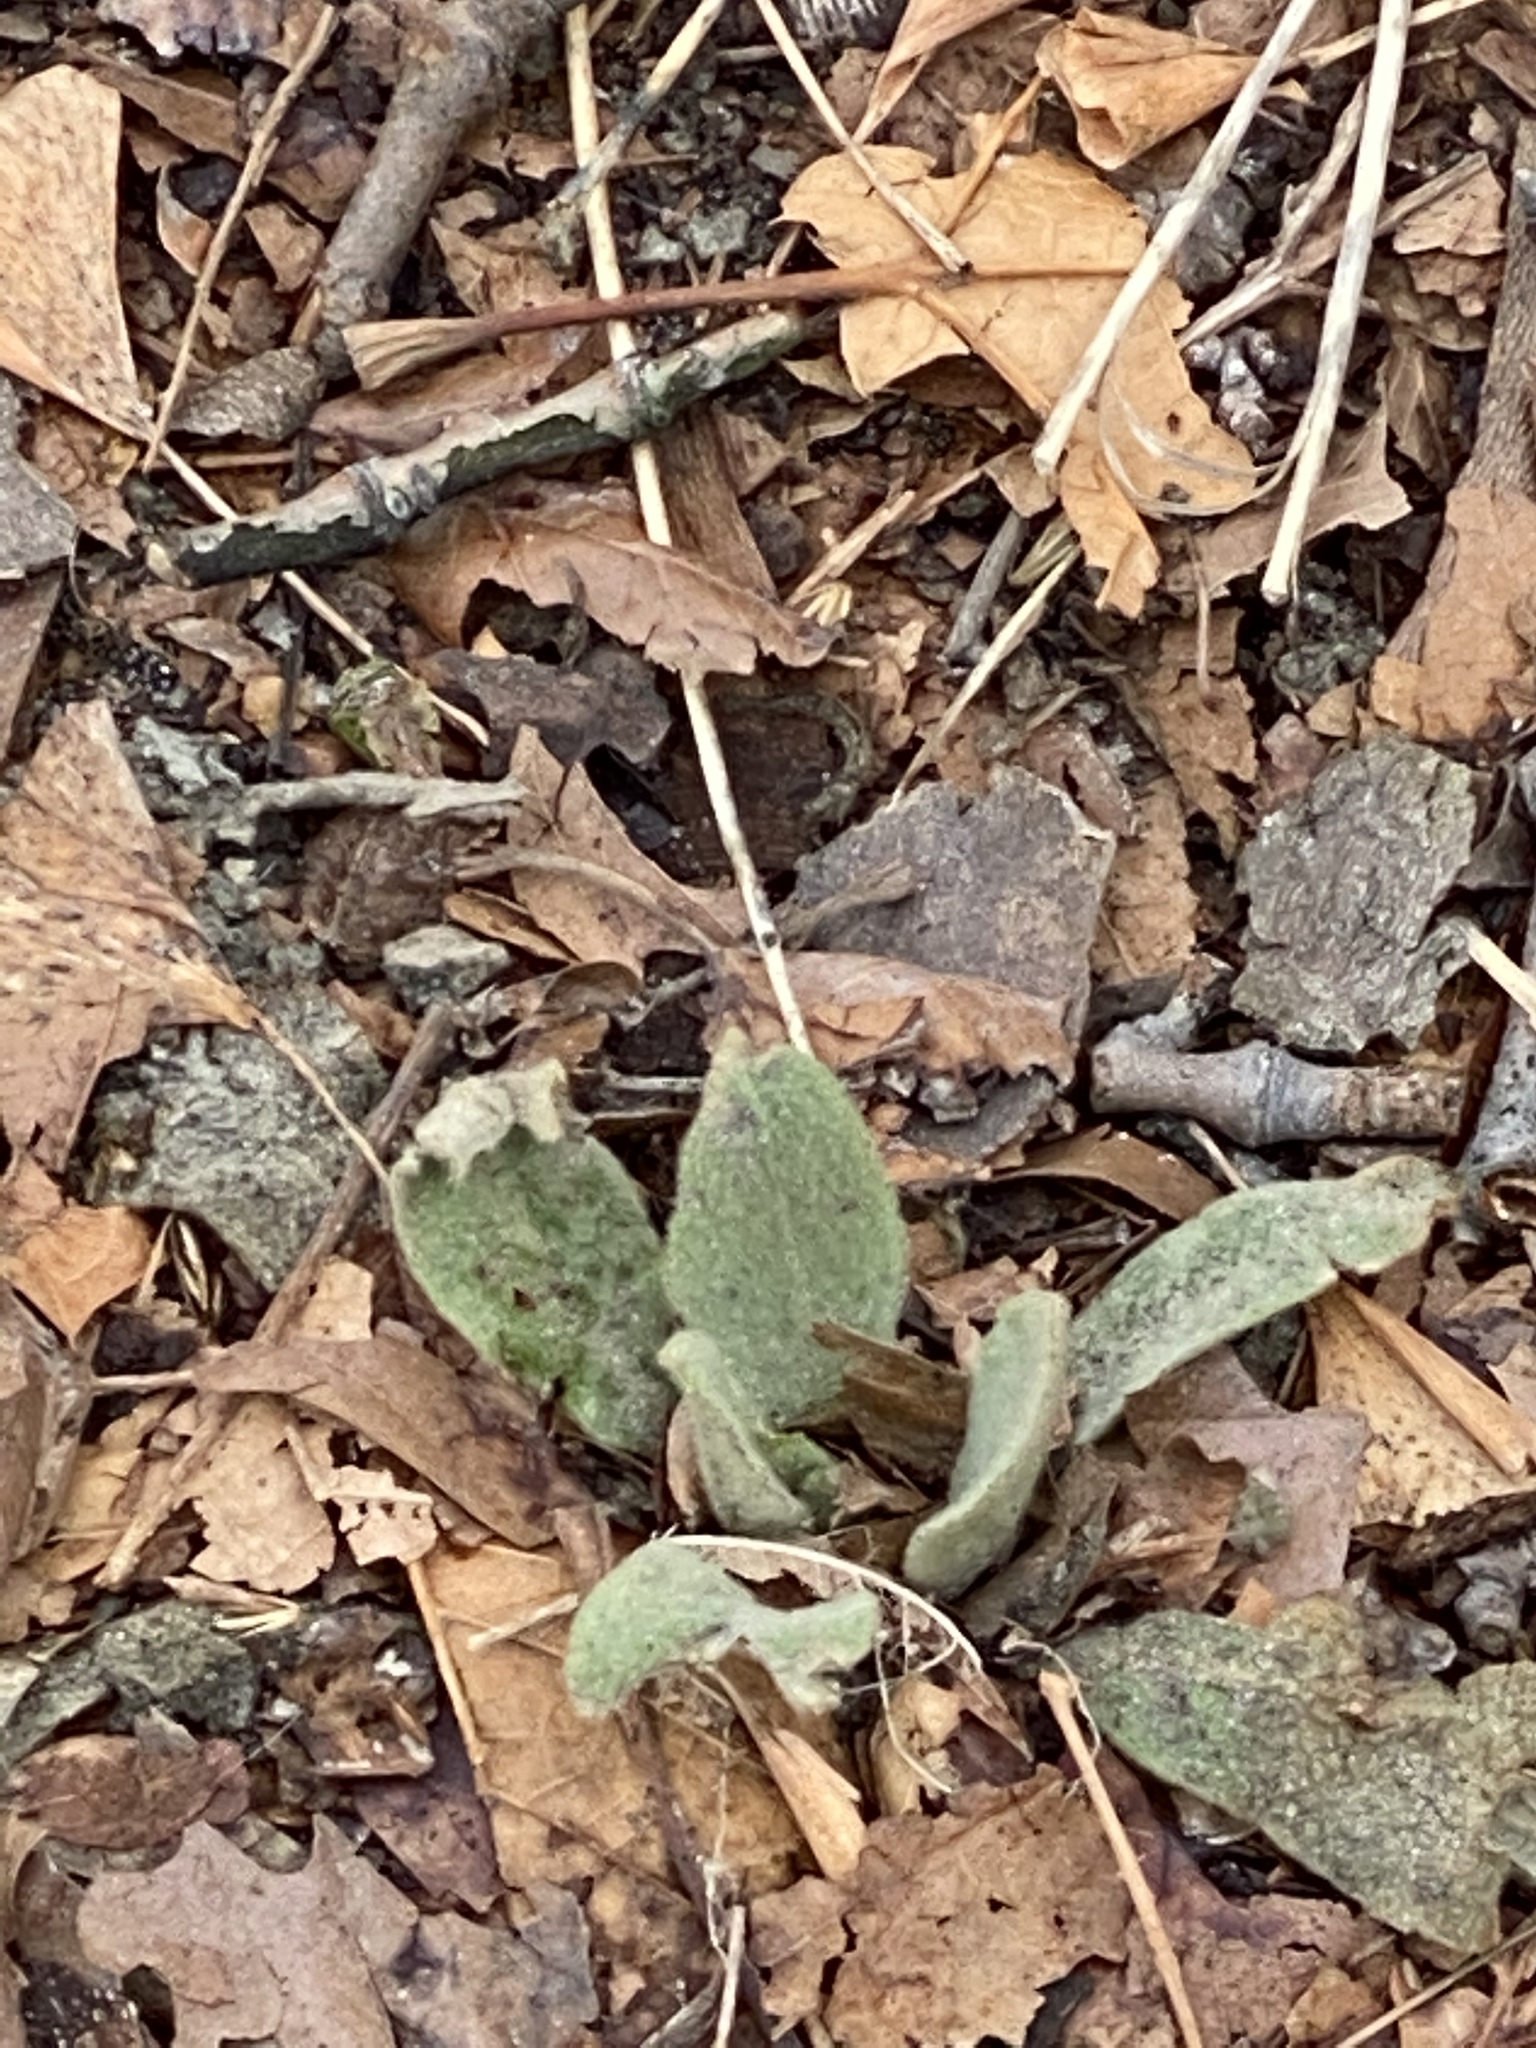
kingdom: Plantae
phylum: Tracheophyta
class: Magnoliopsida
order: Lamiales
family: Scrophulariaceae
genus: Verbascum
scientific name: Verbascum thapsus
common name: Common mullein
